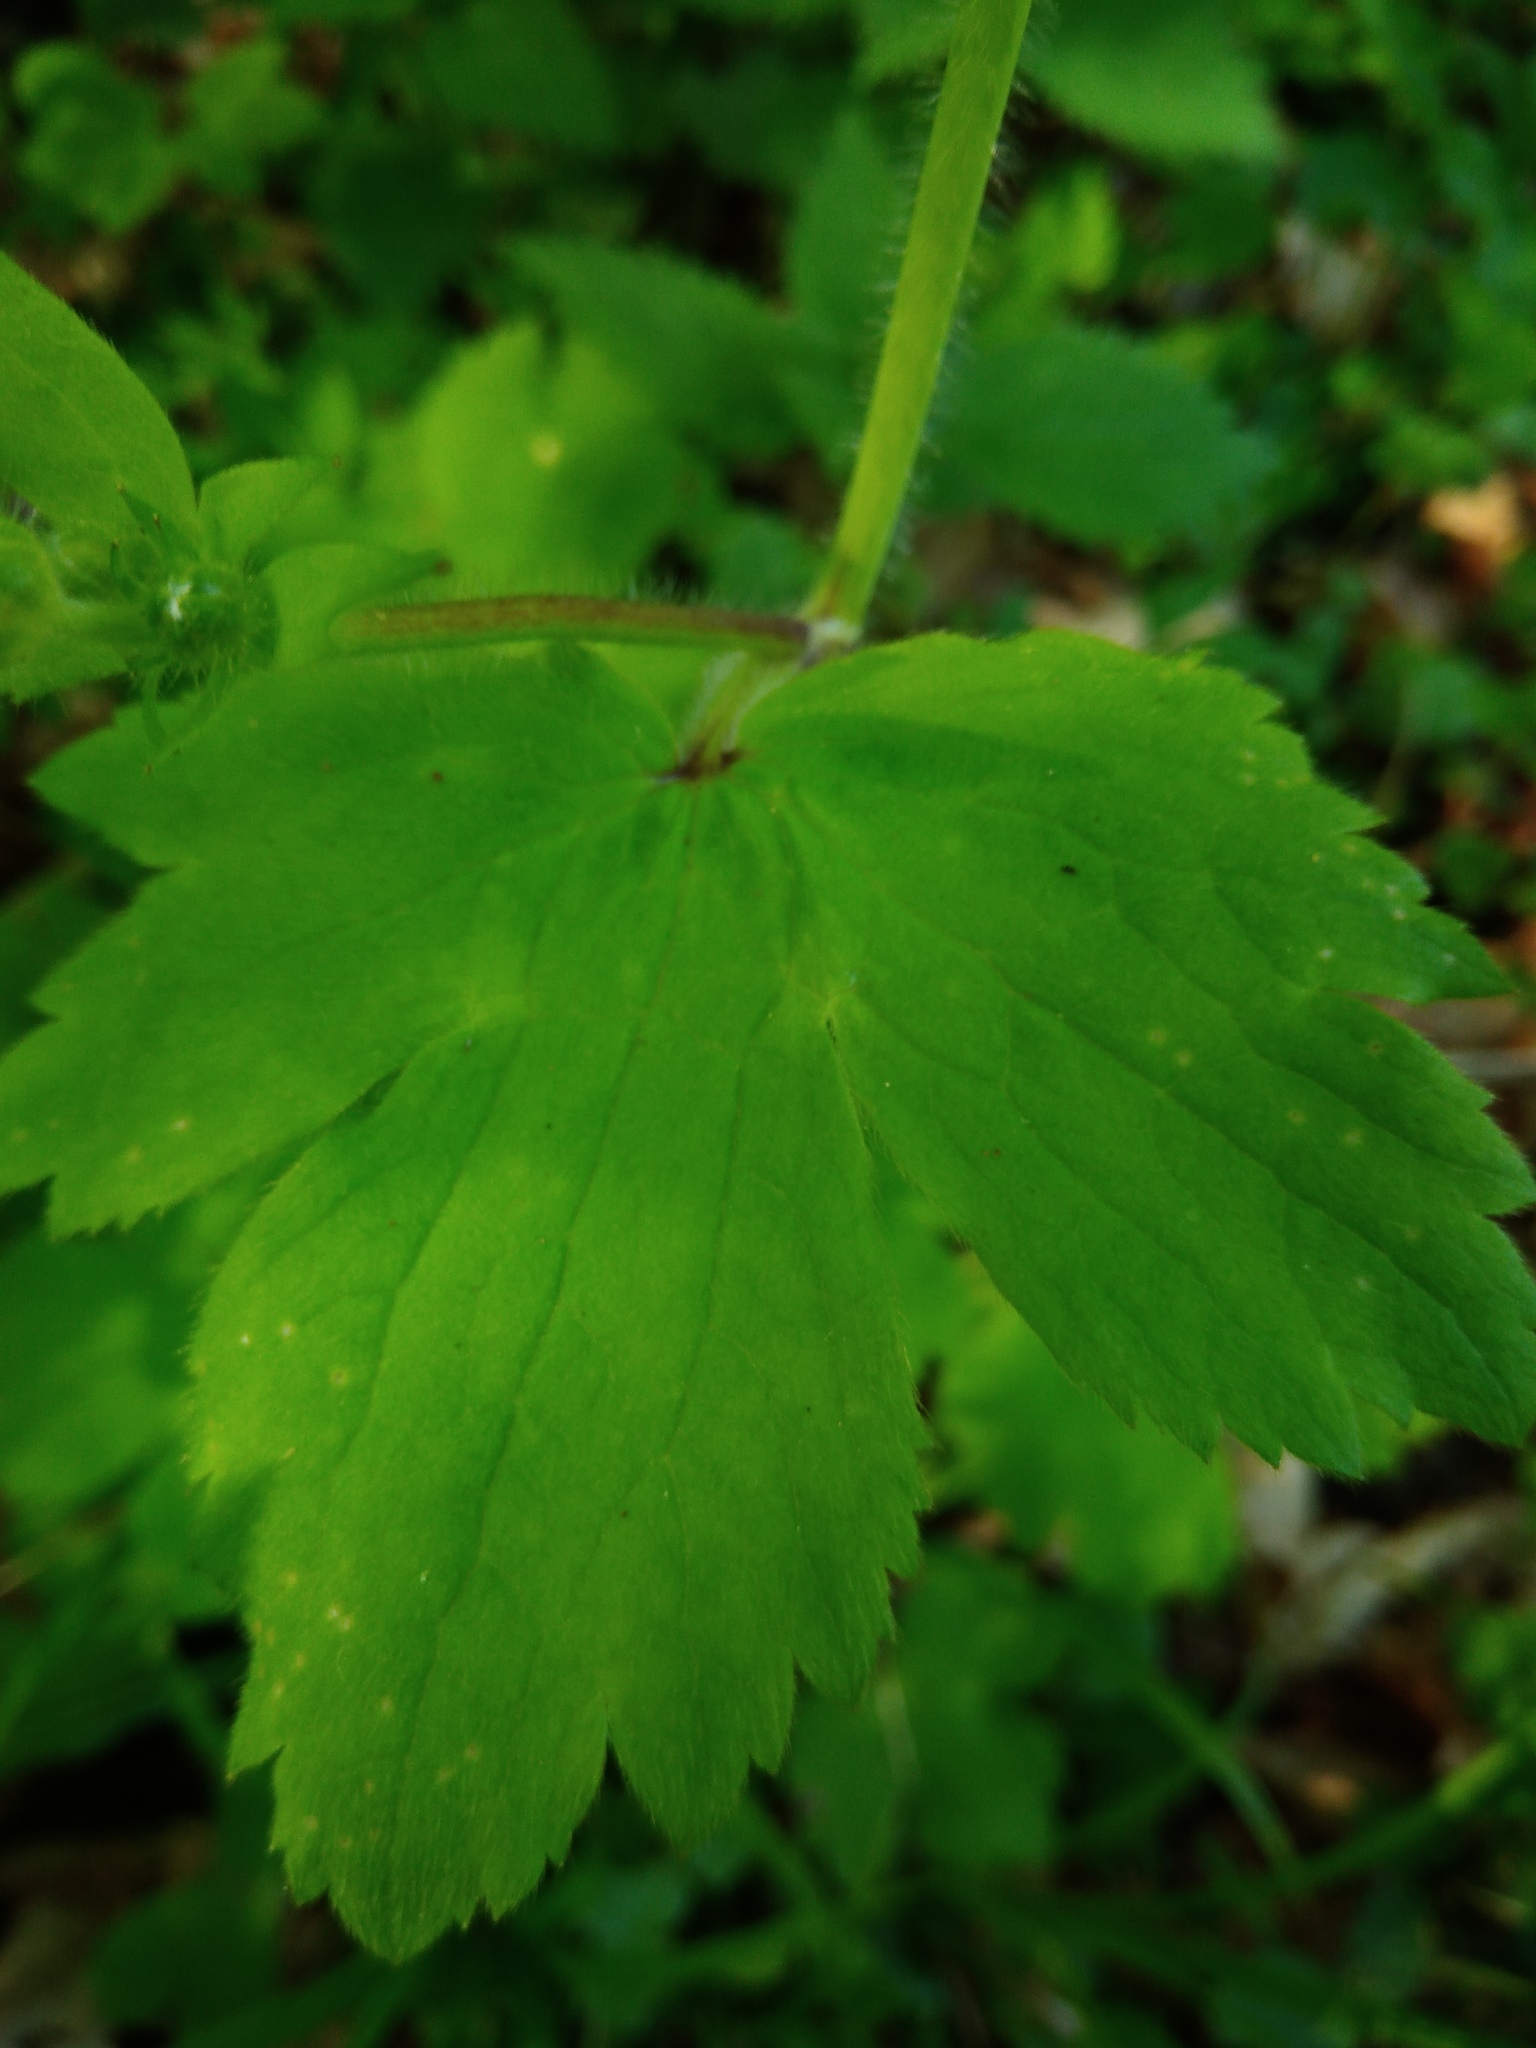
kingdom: Plantae
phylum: Tracheophyta
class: Magnoliopsida
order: Ranunculales
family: Ranunculaceae
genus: Ranunculus
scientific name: Ranunculus lanuginosus
